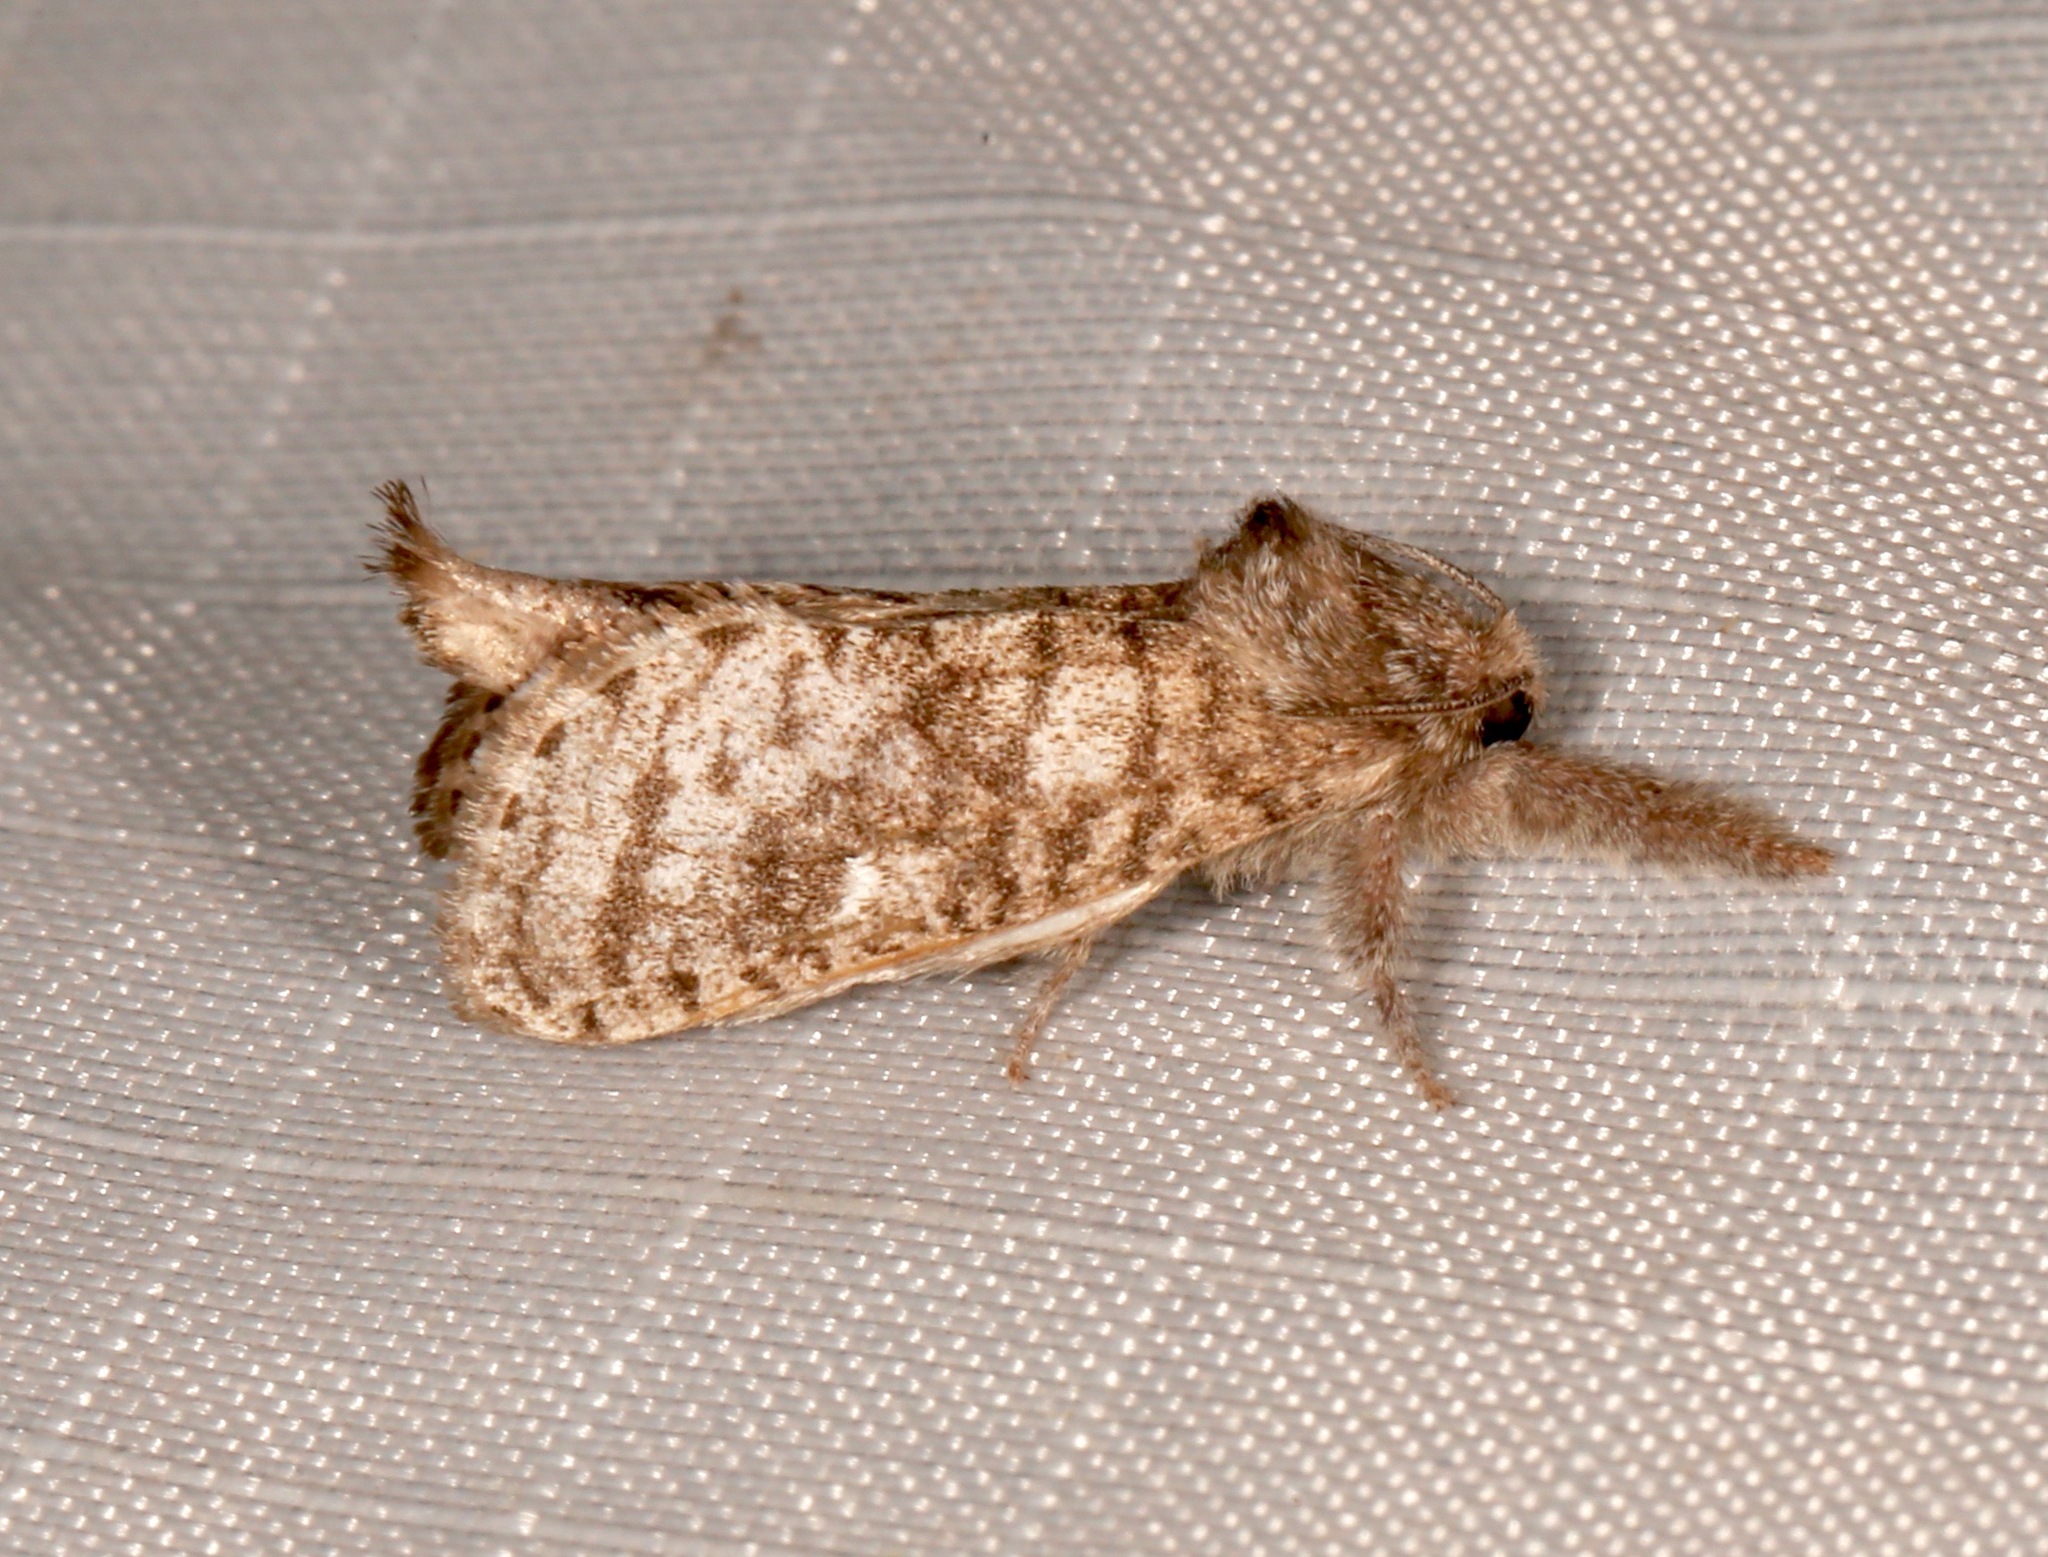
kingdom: Animalia
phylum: Arthropoda
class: Insecta
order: Lepidoptera
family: Cossidae
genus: Givira
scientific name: Givira francesca
